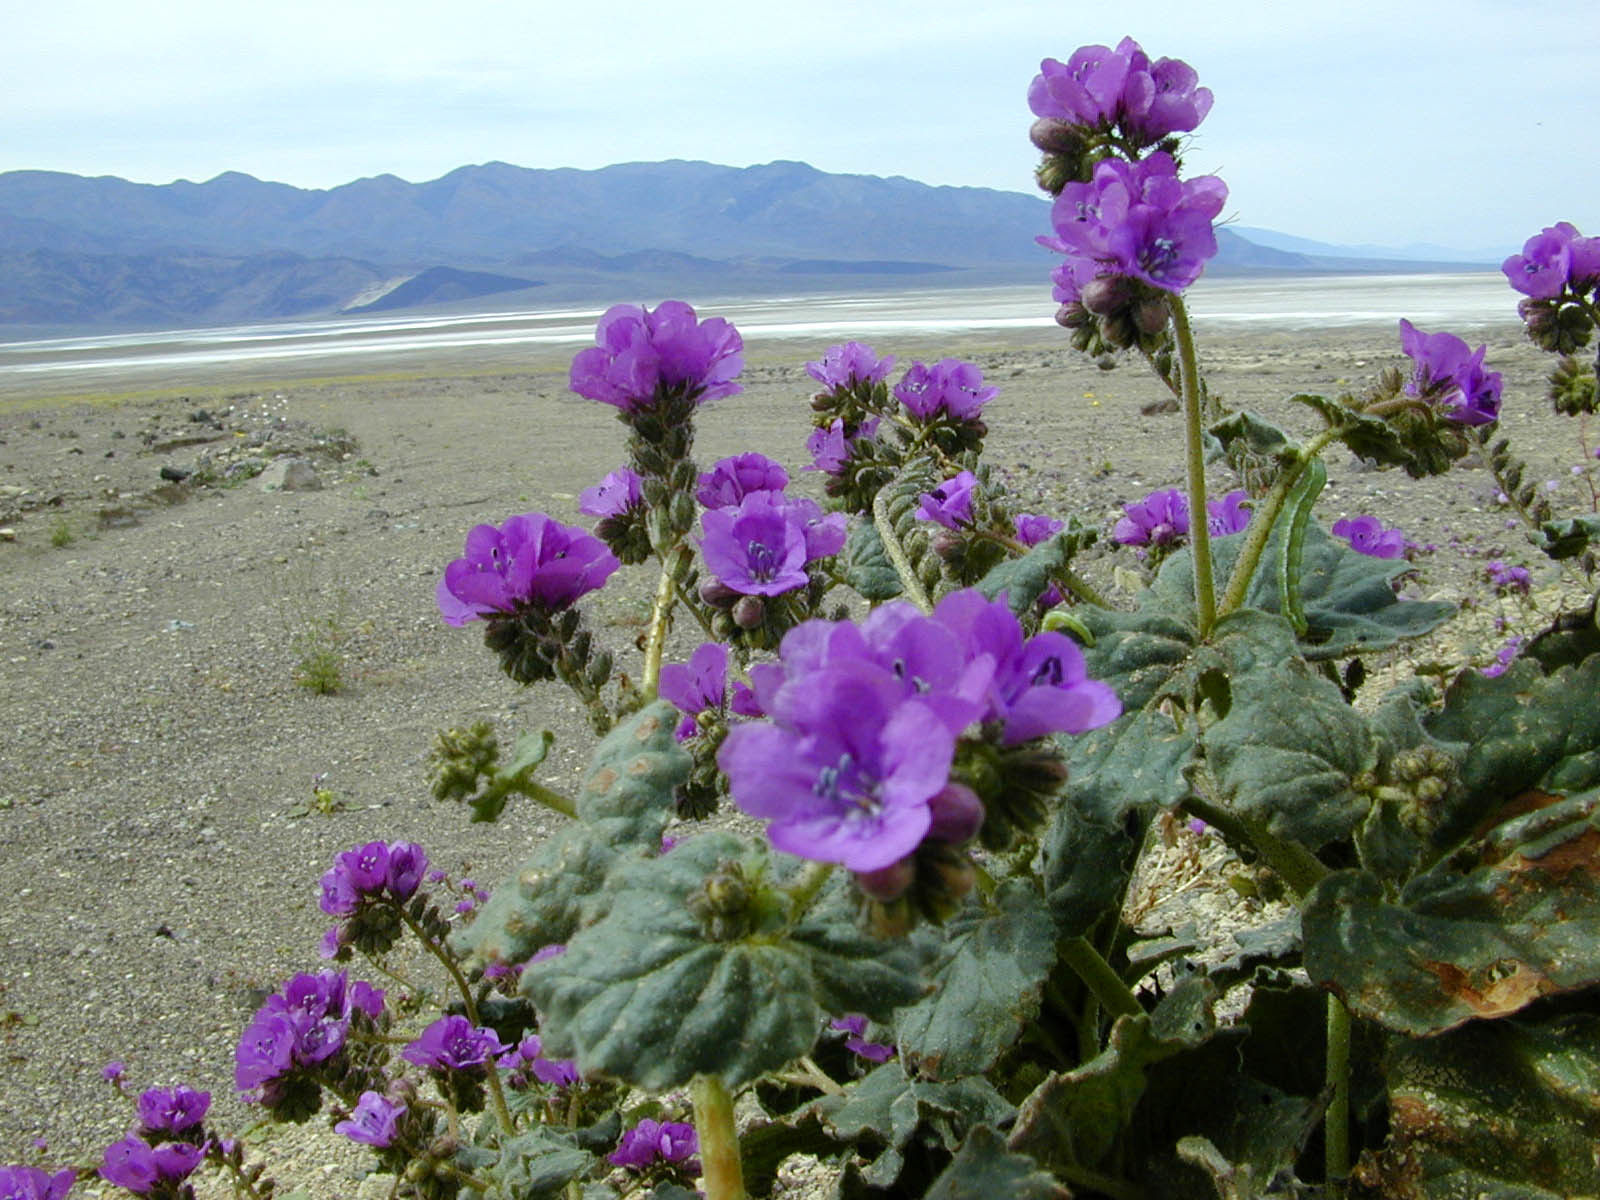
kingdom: Plantae
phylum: Tracheophyta
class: Magnoliopsida
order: Boraginales
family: Hydrophyllaceae
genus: Phacelia
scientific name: Phacelia calthifolia
